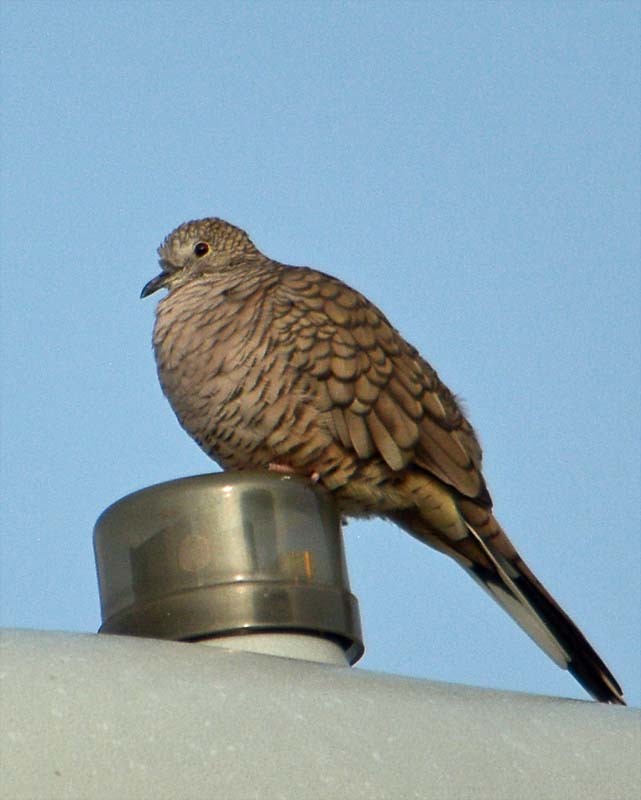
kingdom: Animalia
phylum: Chordata
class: Aves
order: Columbiformes
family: Columbidae
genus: Columbina
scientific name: Columbina inca
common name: Inca dove
